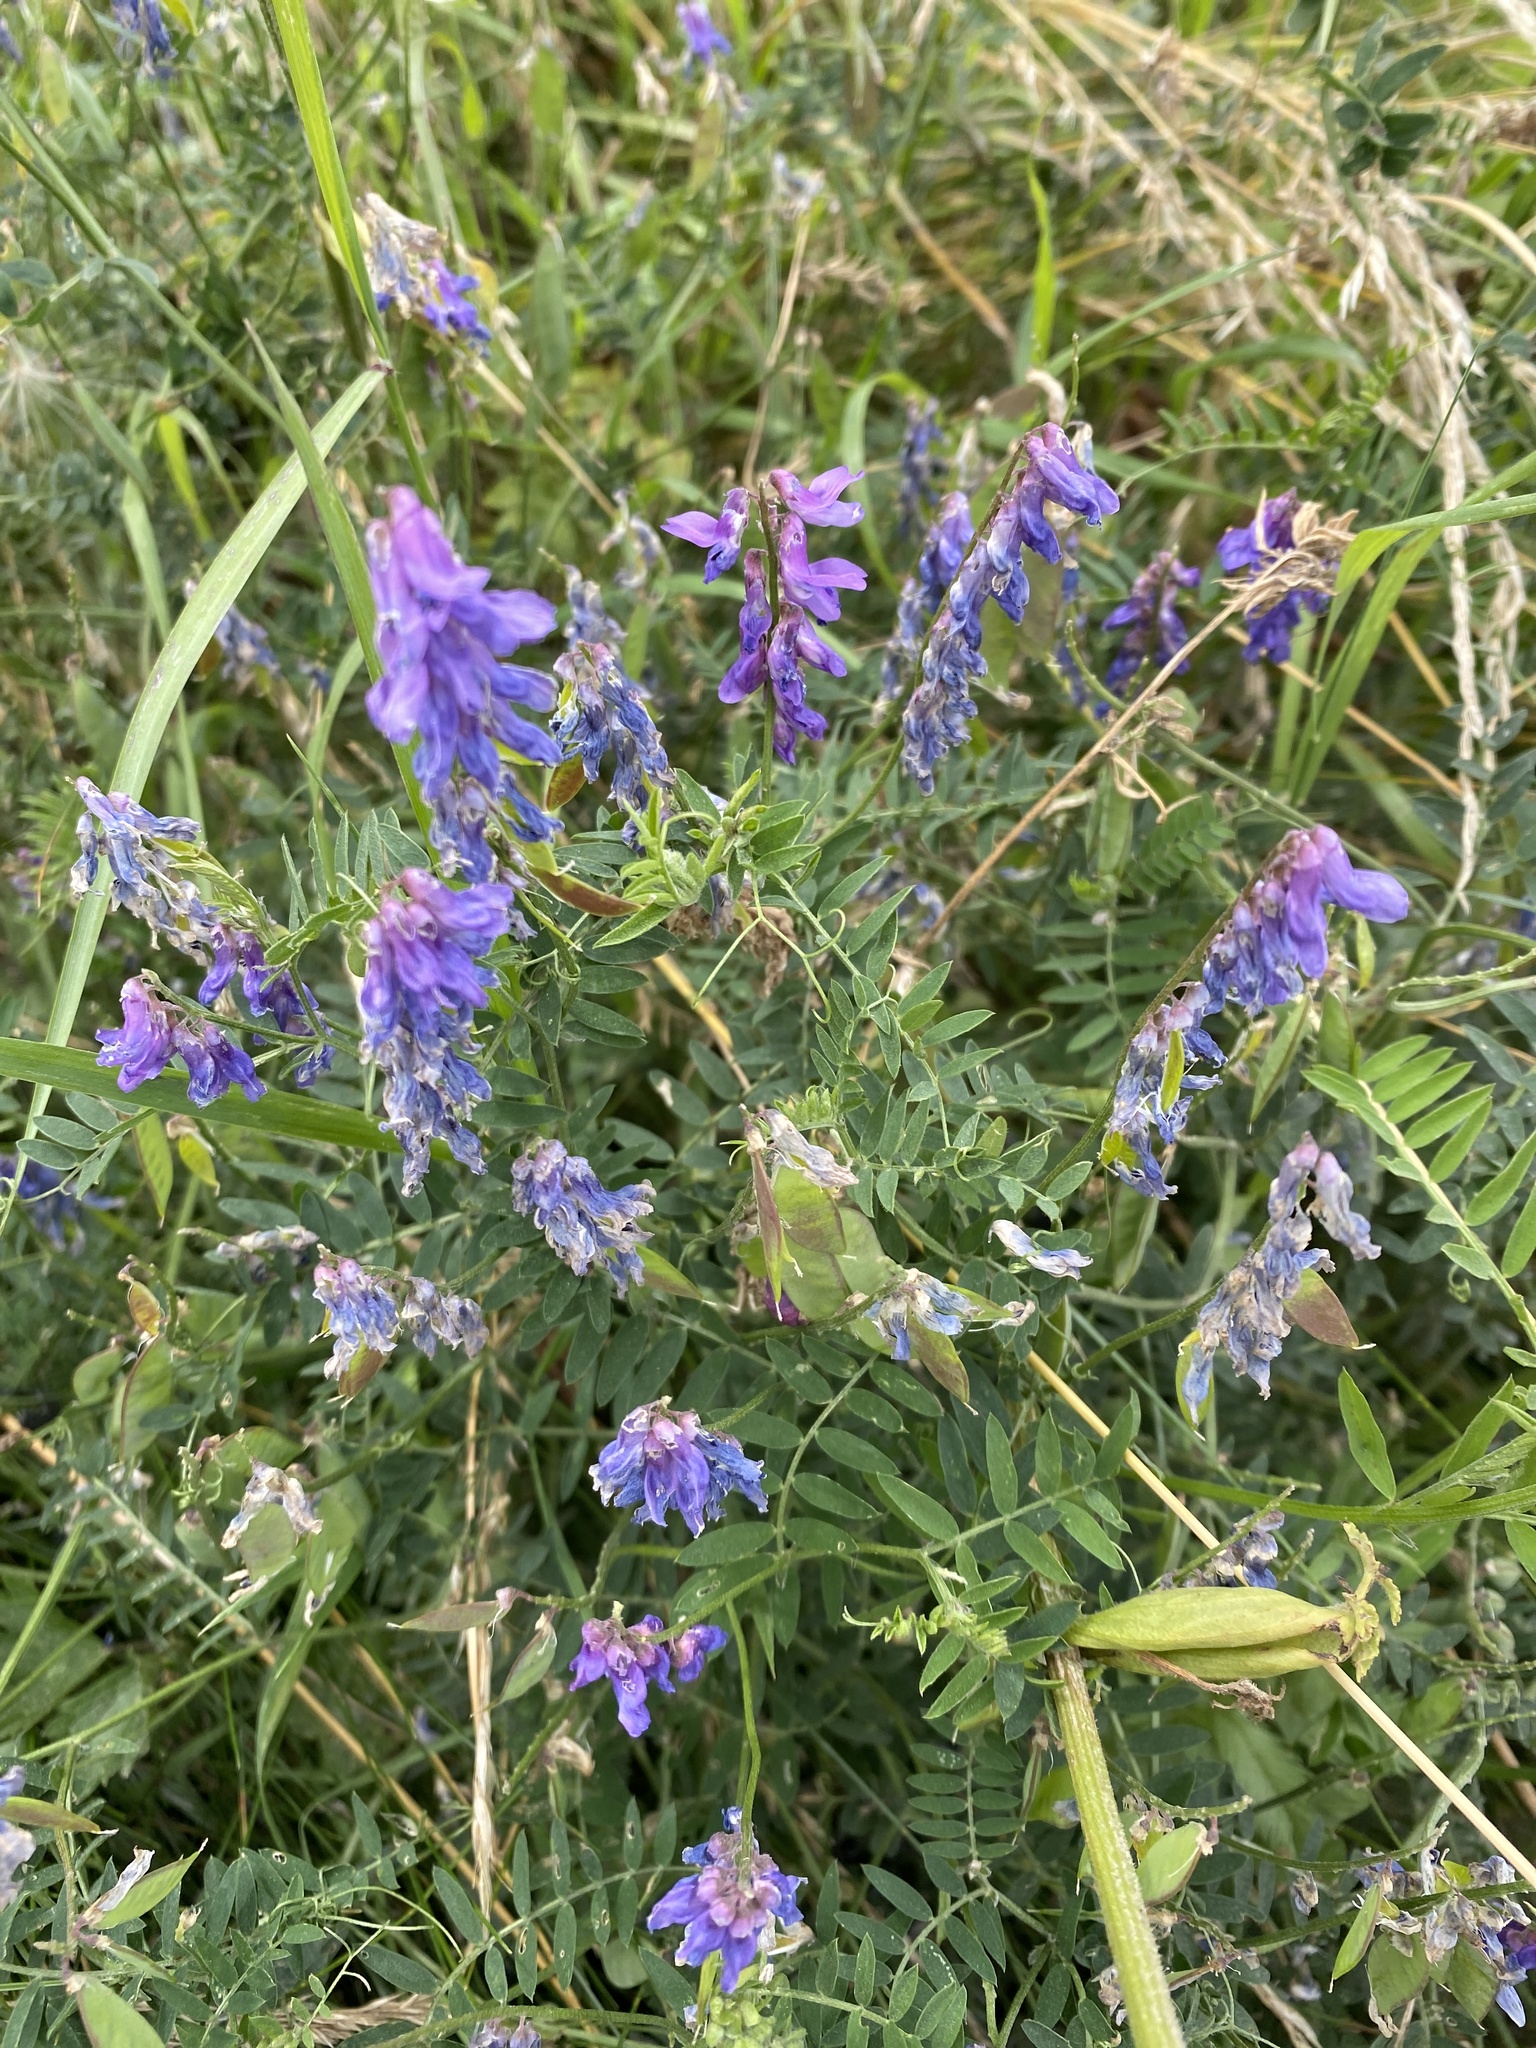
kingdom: Plantae
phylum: Tracheophyta
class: Magnoliopsida
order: Fabales
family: Fabaceae
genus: Vicia
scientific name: Vicia cracca
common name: Bird vetch
